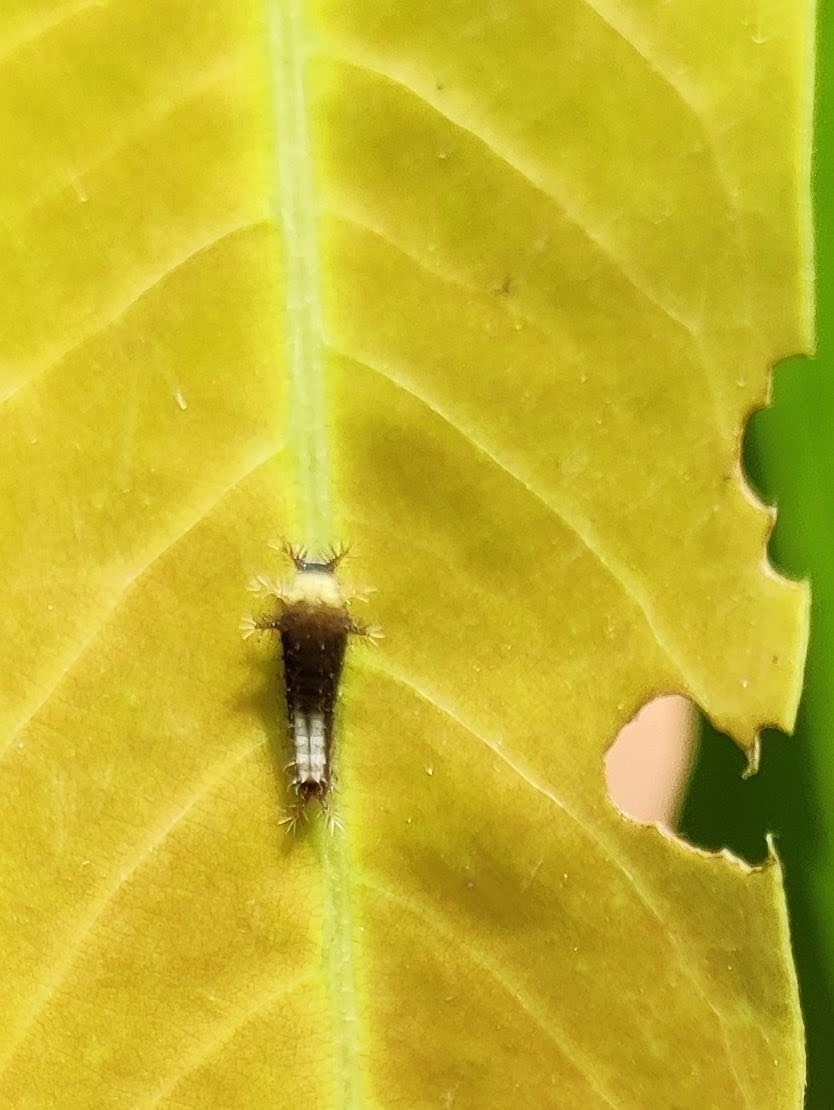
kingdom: Animalia
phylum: Arthropoda
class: Insecta
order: Lepidoptera
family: Papilionidae
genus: Graphium
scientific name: Graphium agamemnon
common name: Tailed jay
